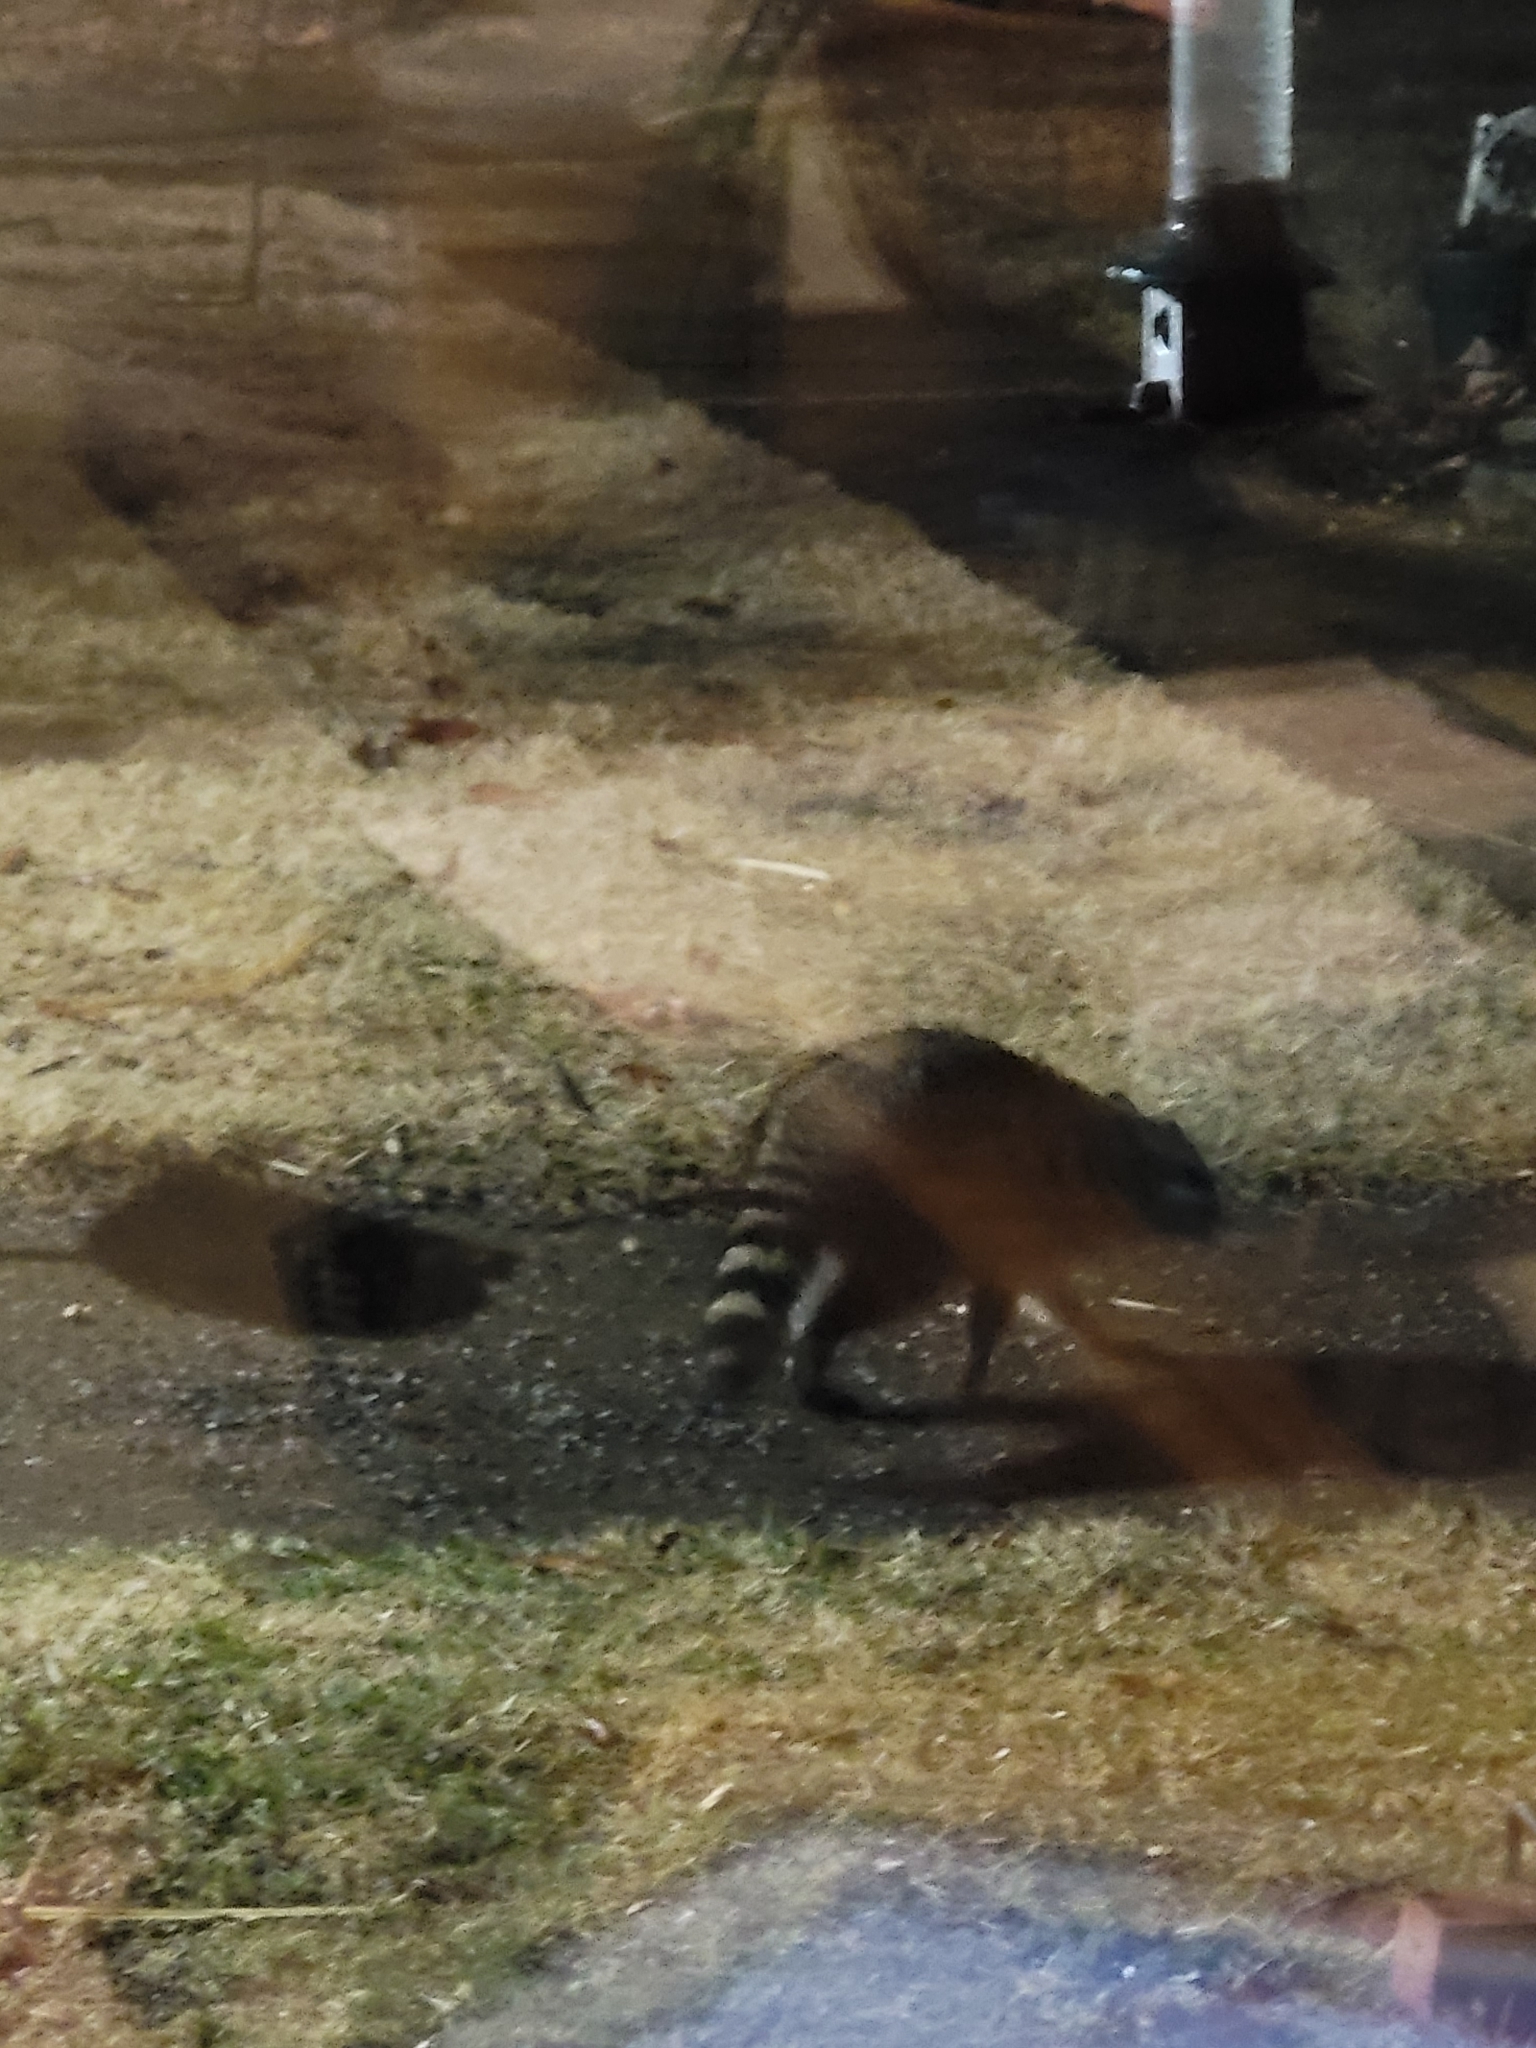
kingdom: Animalia
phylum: Chordata
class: Mammalia
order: Carnivora
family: Procyonidae
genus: Procyon
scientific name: Procyon lotor
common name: Raccoon
